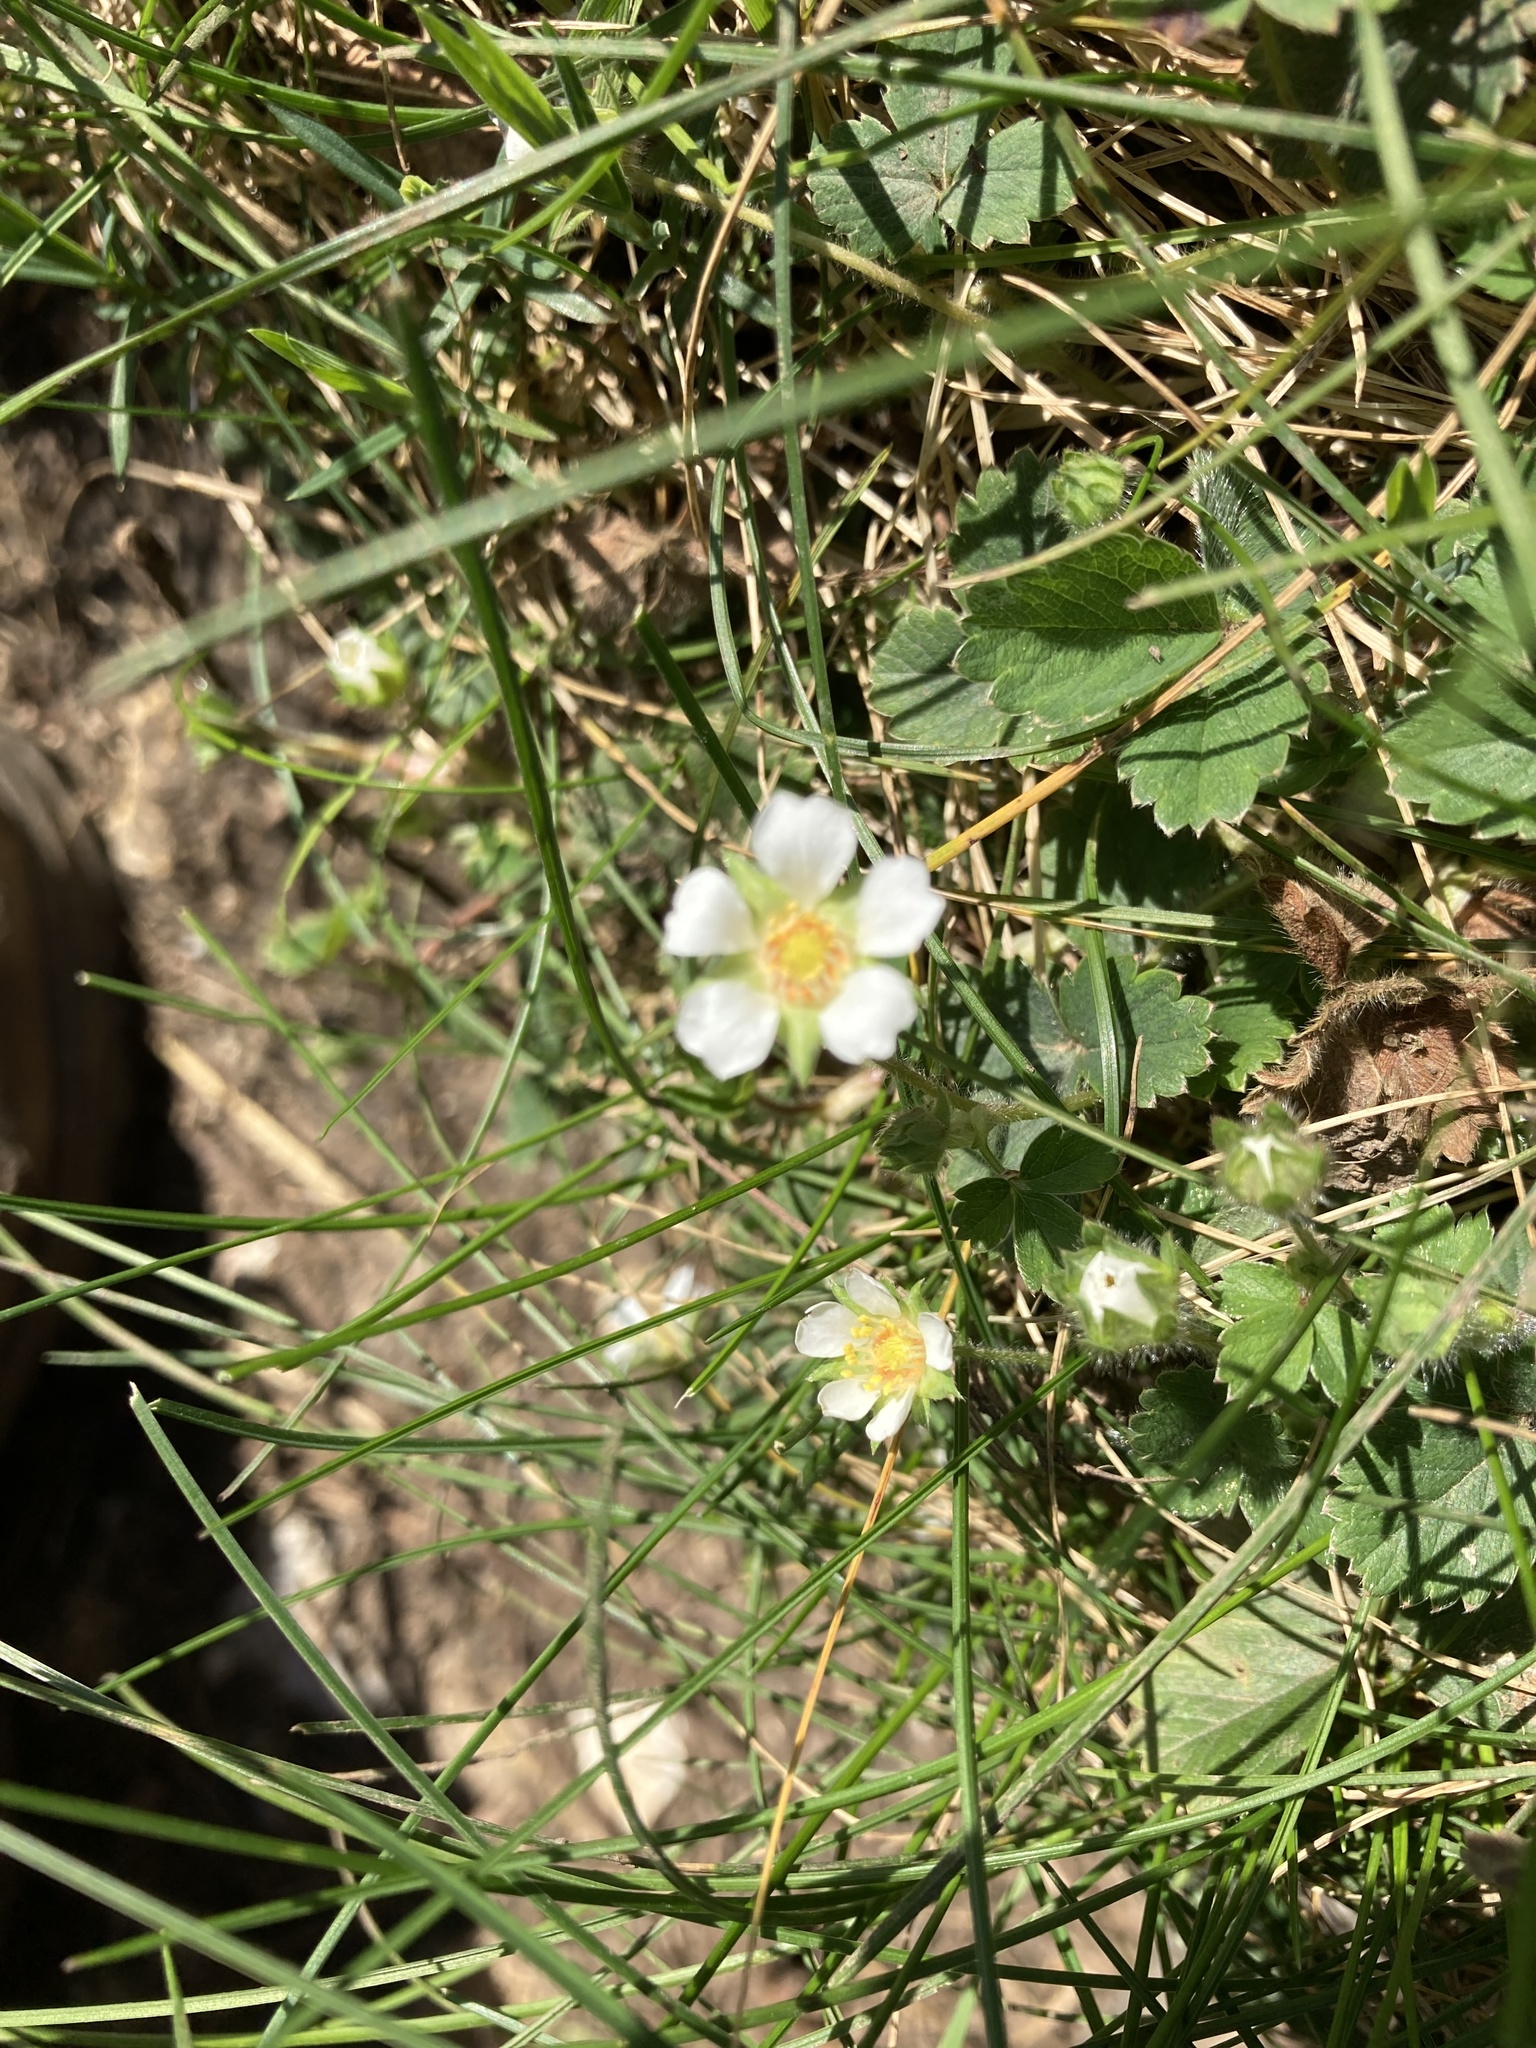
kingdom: Plantae
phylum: Tracheophyta
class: Magnoliopsida
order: Rosales
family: Rosaceae
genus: Potentilla
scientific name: Potentilla sterilis
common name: Barren strawberry
